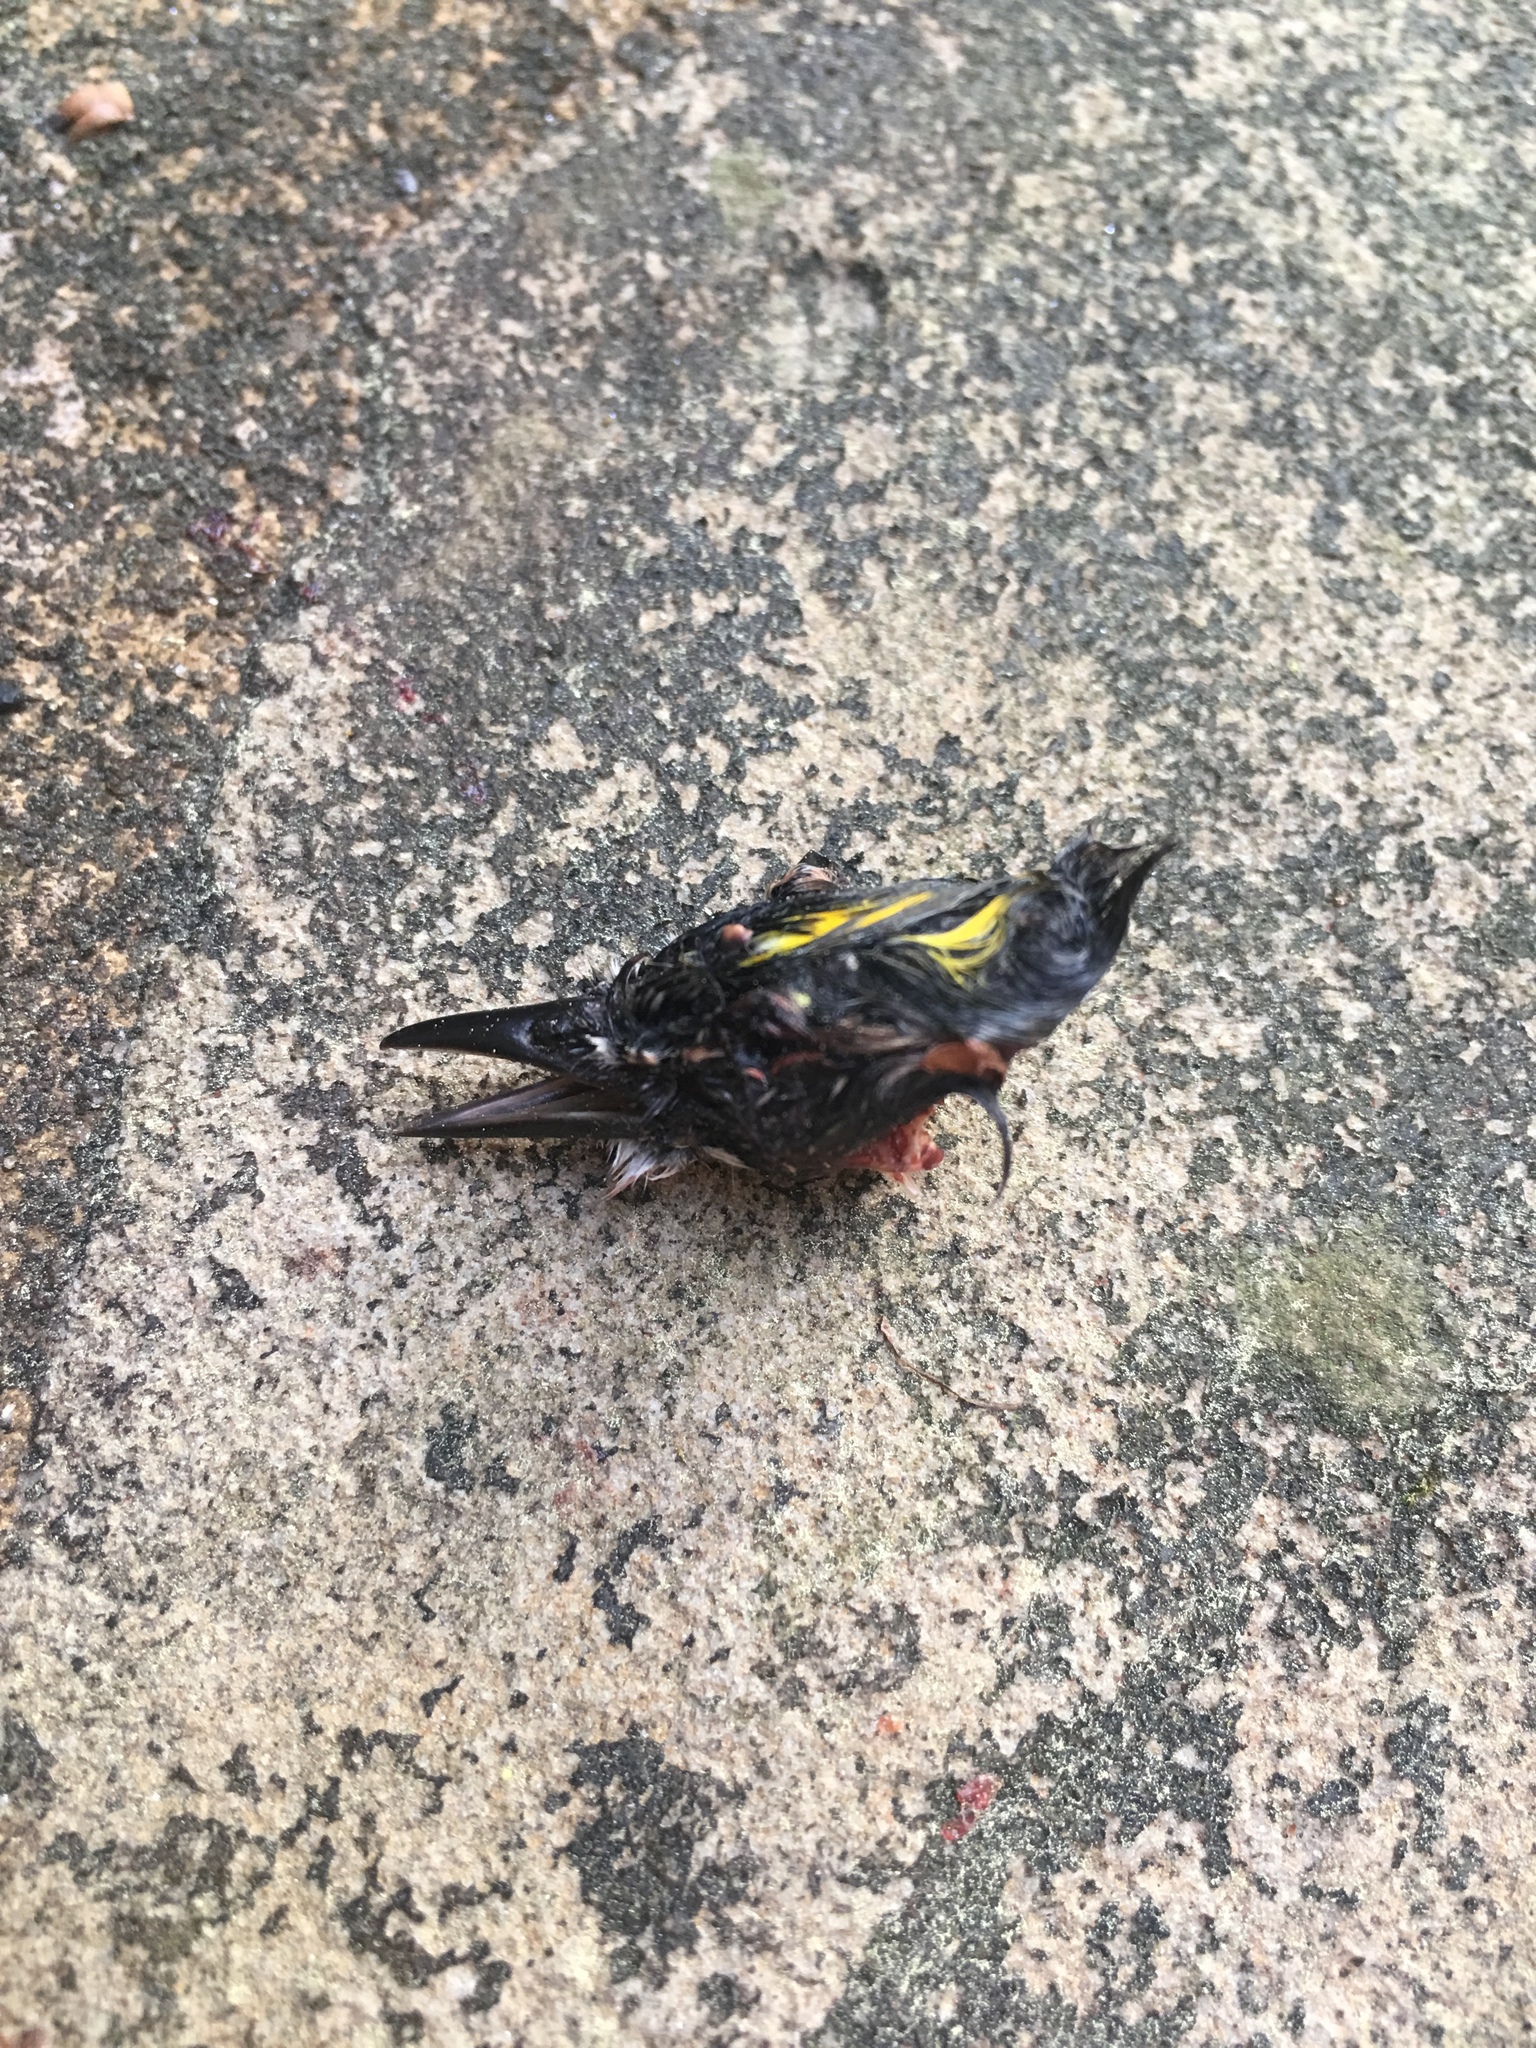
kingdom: Animalia
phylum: Chordata
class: Aves
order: Passeriformes
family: Parulidae
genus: Setophaga
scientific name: Setophaga coronata
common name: Myrtle warbler
